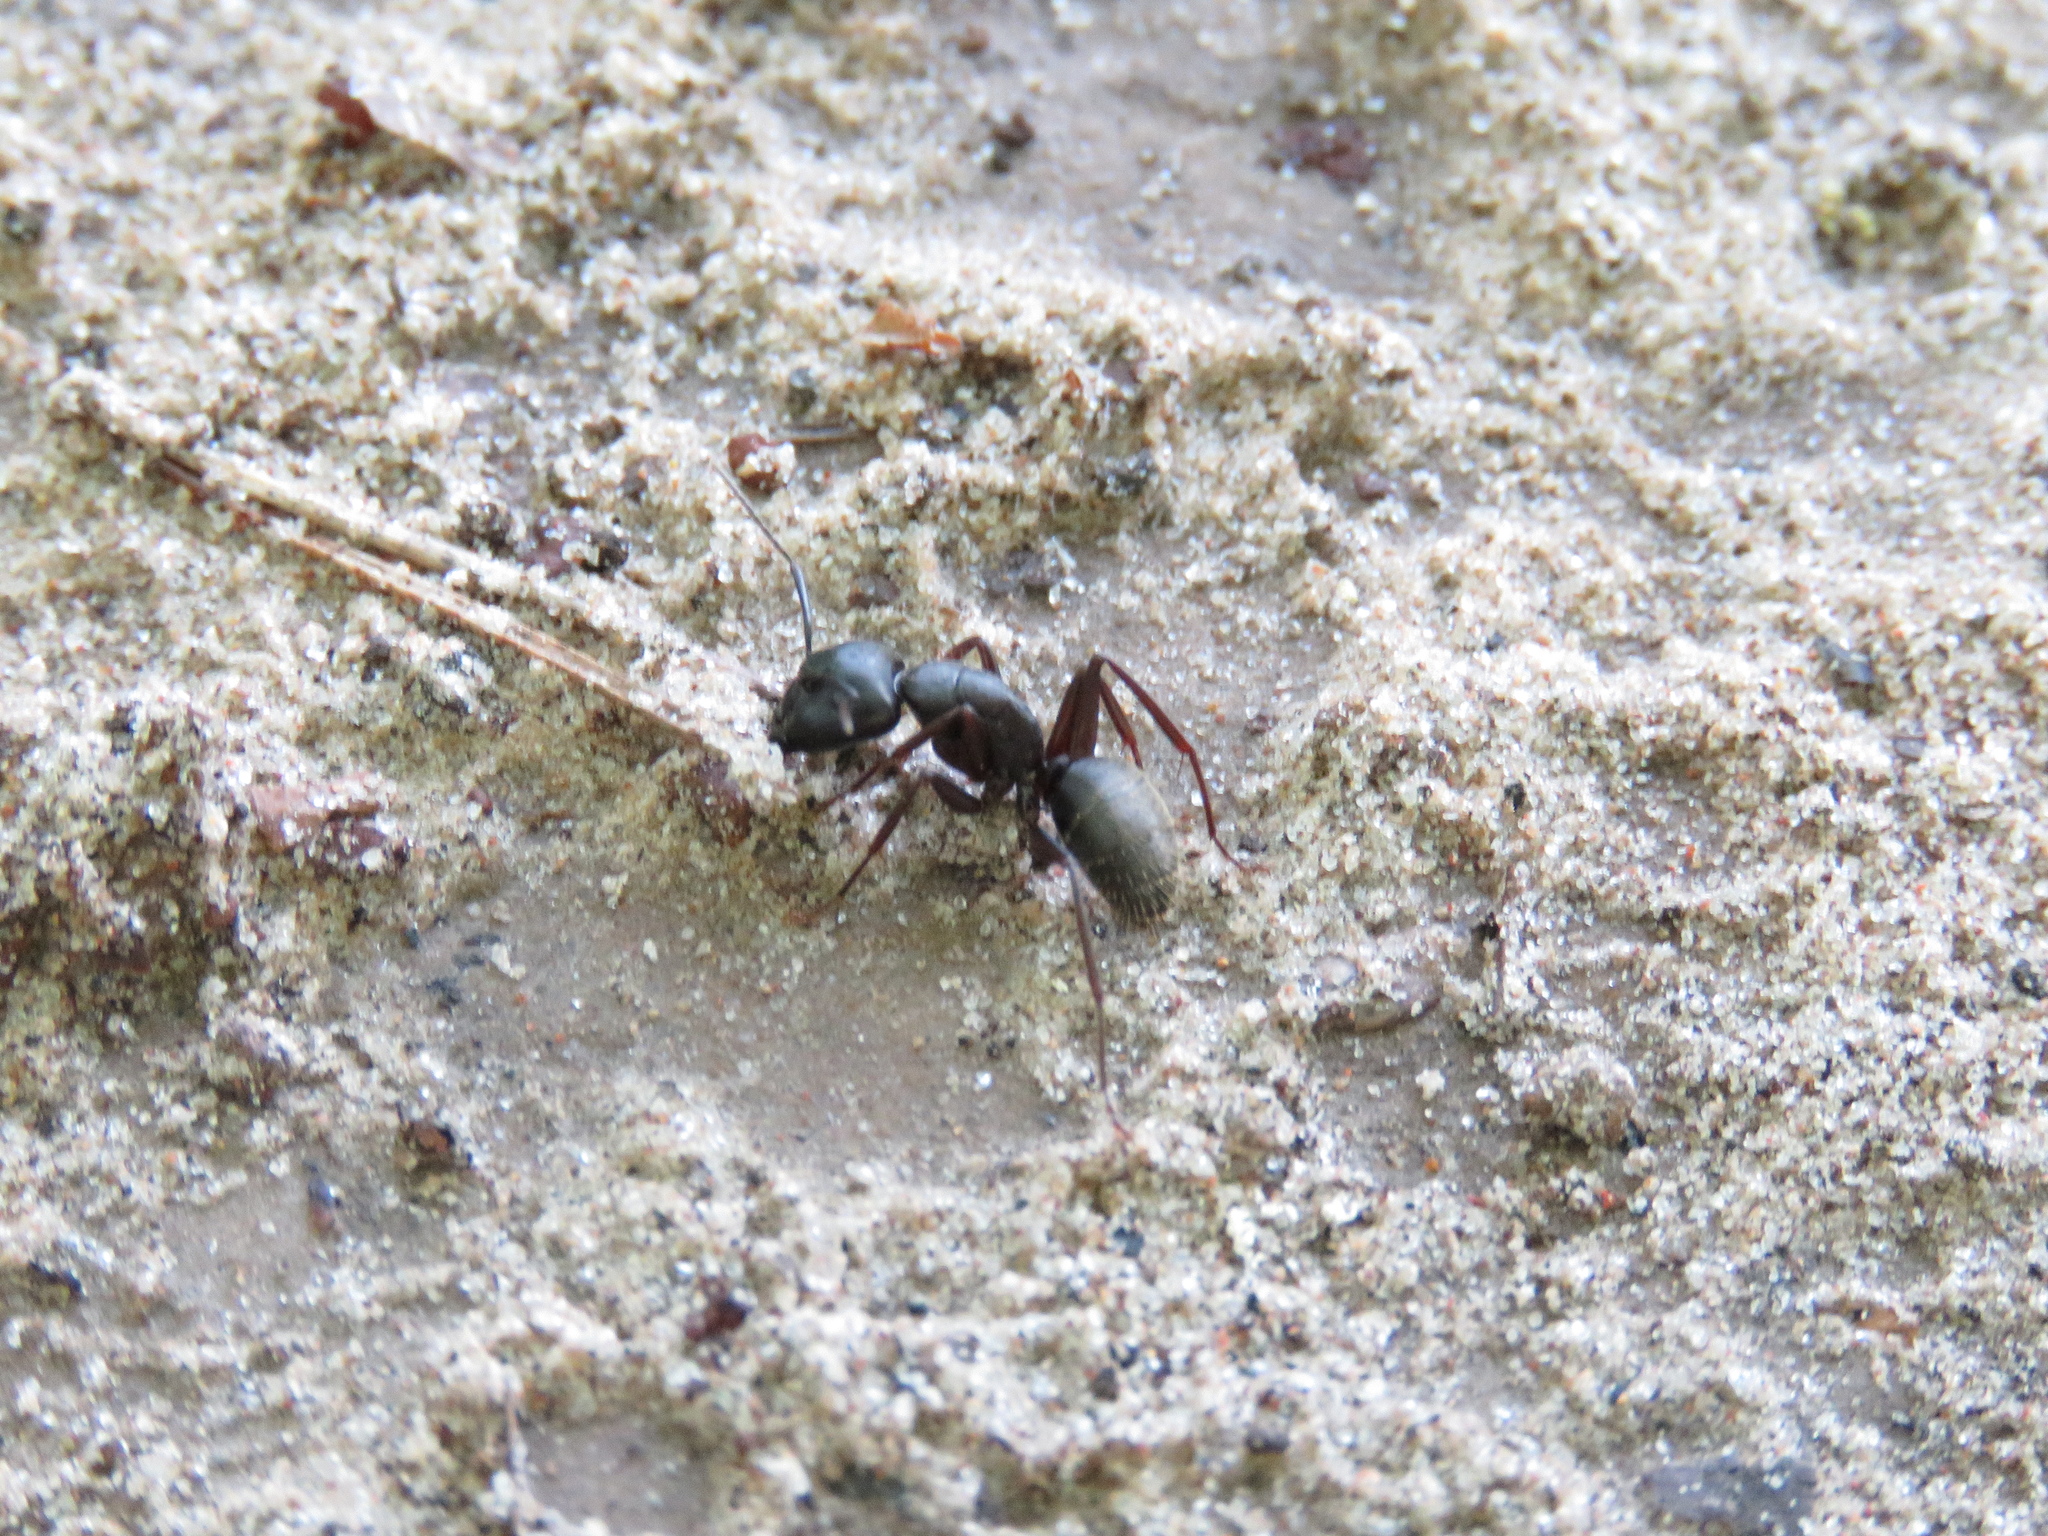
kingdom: Animalia
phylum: Arthropoda
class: Insecta
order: Hymenoptera
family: Formicidae
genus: Camponotus
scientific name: Camponotus pennsylvanicus
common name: Black carpenter ant
